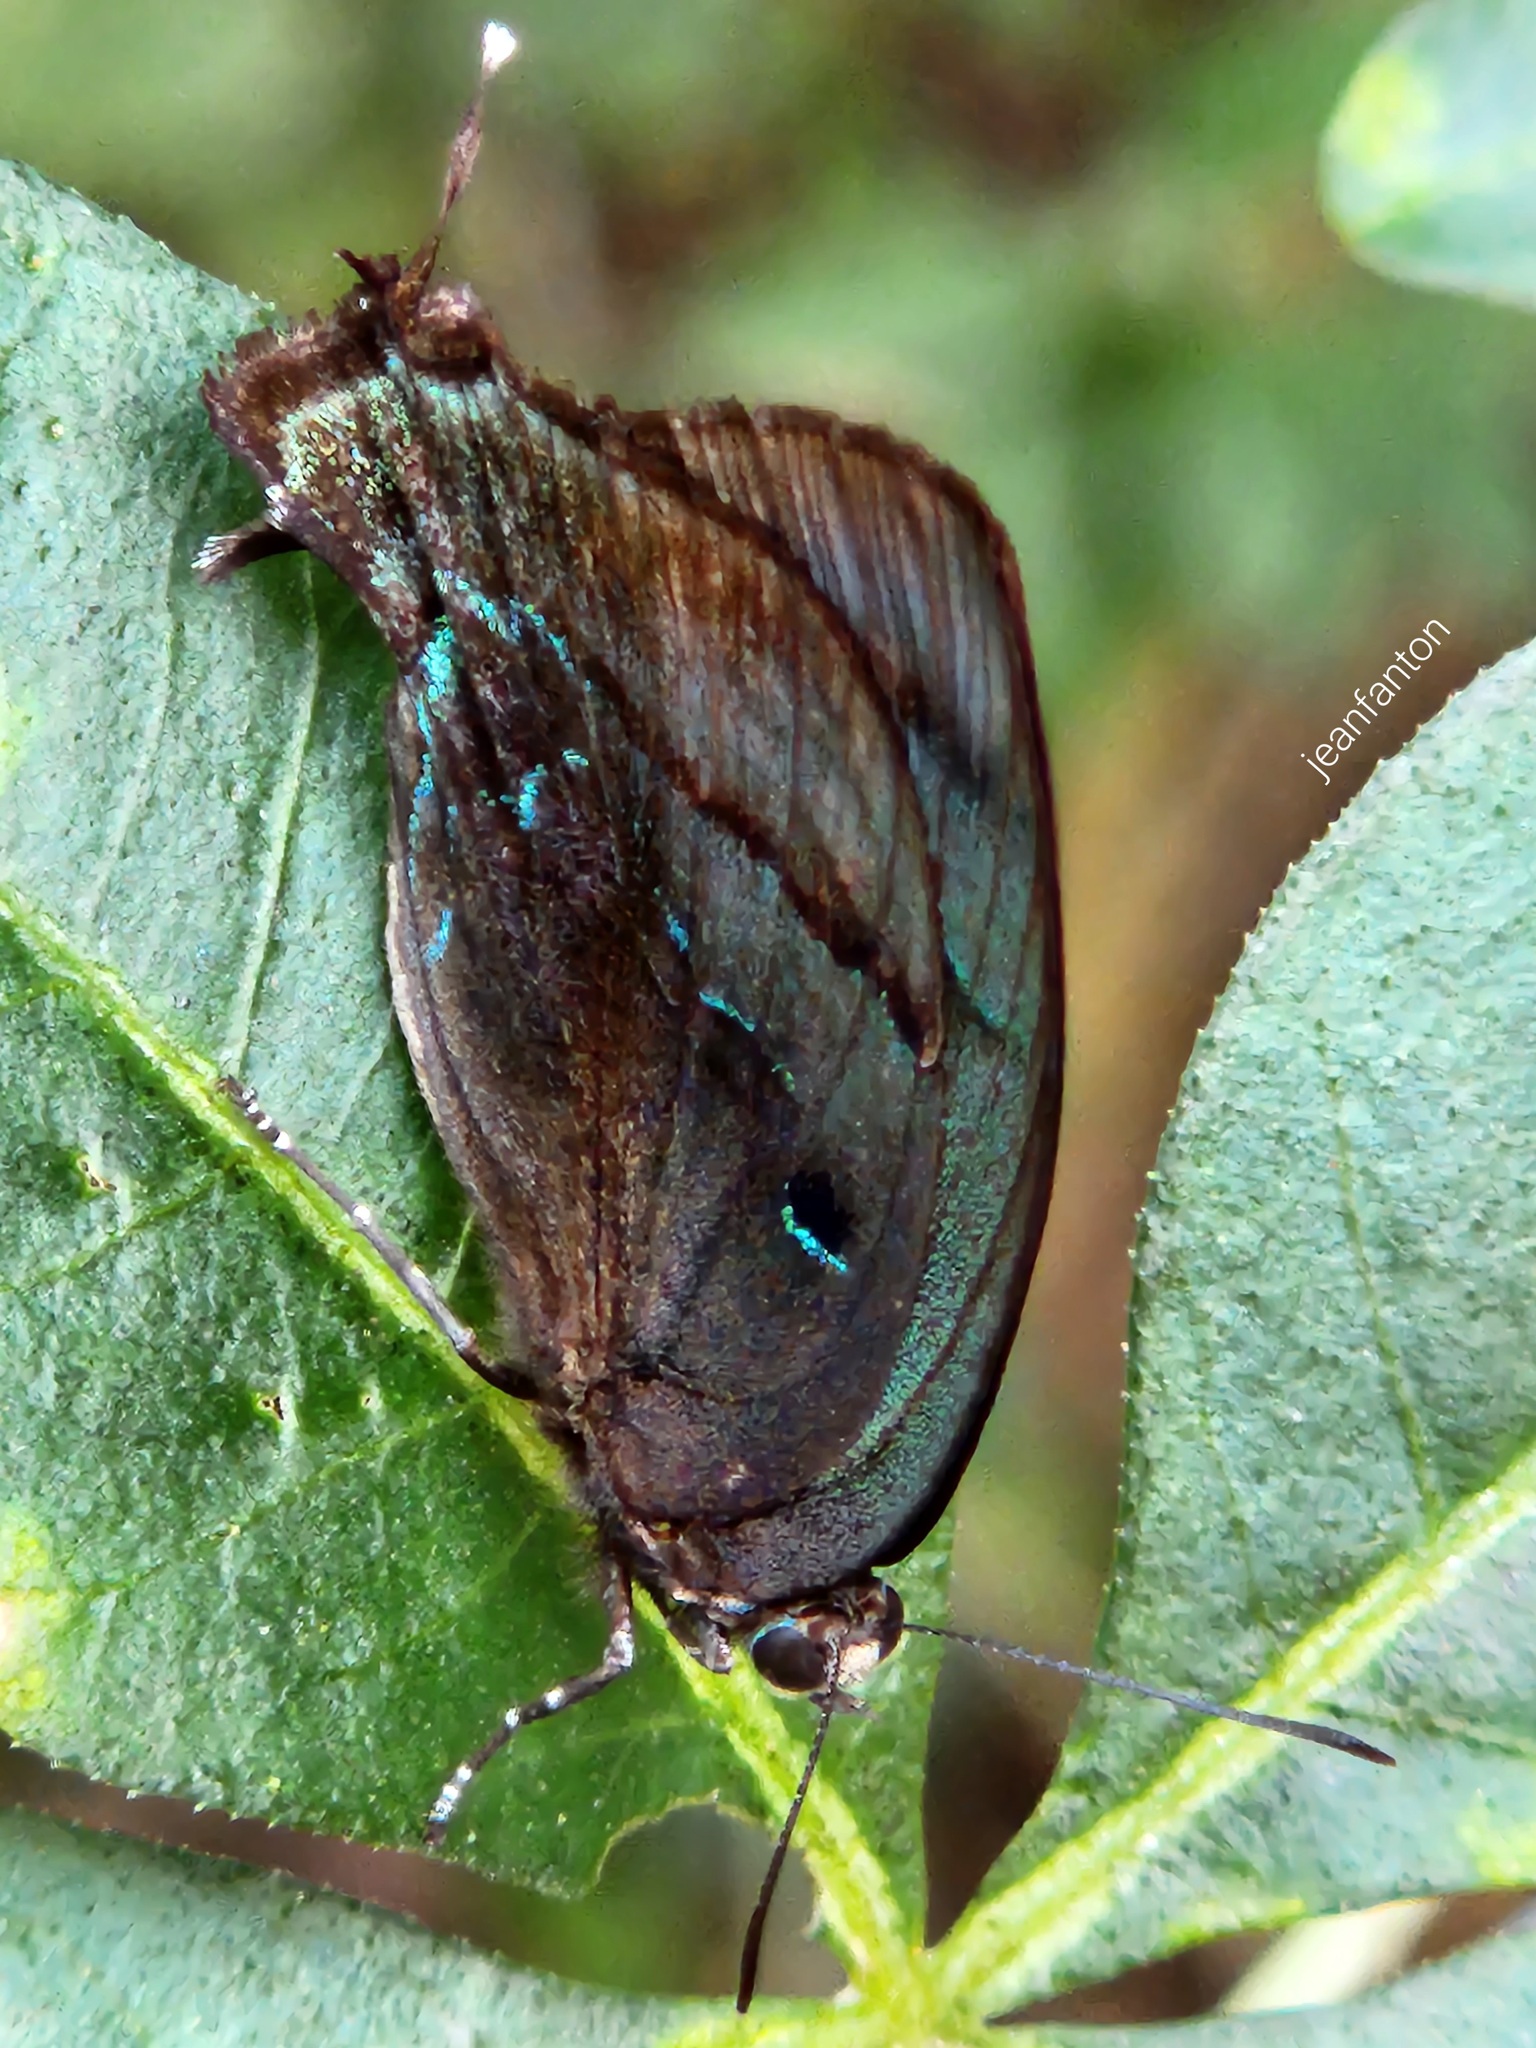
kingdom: Animalia
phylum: Arthropoda
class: Insecta
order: Lepidoptera
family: Lycaenidae
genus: Denivia
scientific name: Denivia hemon
